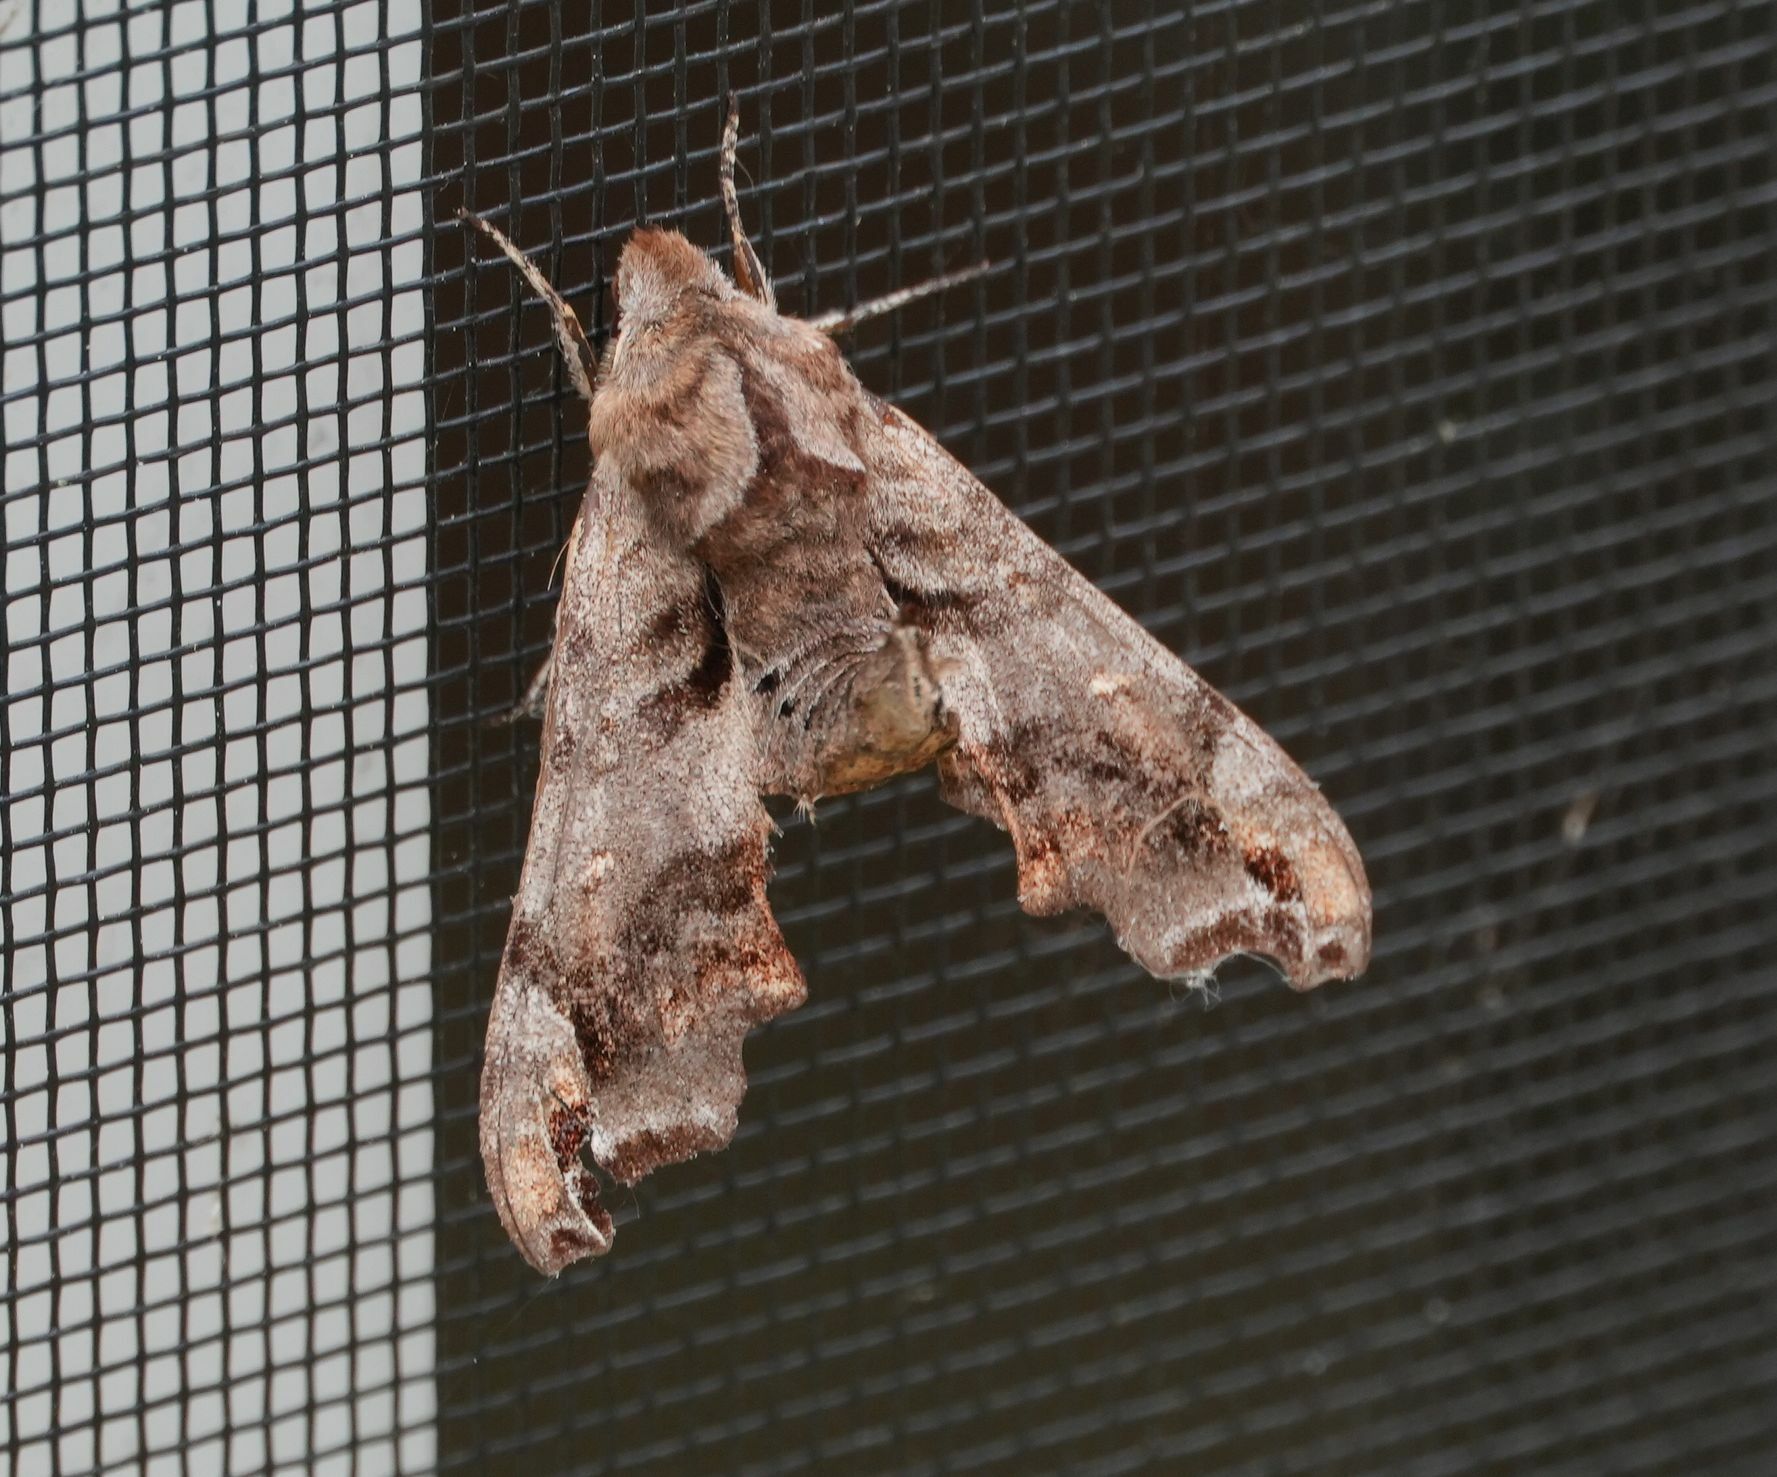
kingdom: Animalia
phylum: Arthropoda
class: Insecta
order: Lepidoptera
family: Sphingidae
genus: Deidamia
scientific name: Deidamia inscriptum
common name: Lettered sphinx
